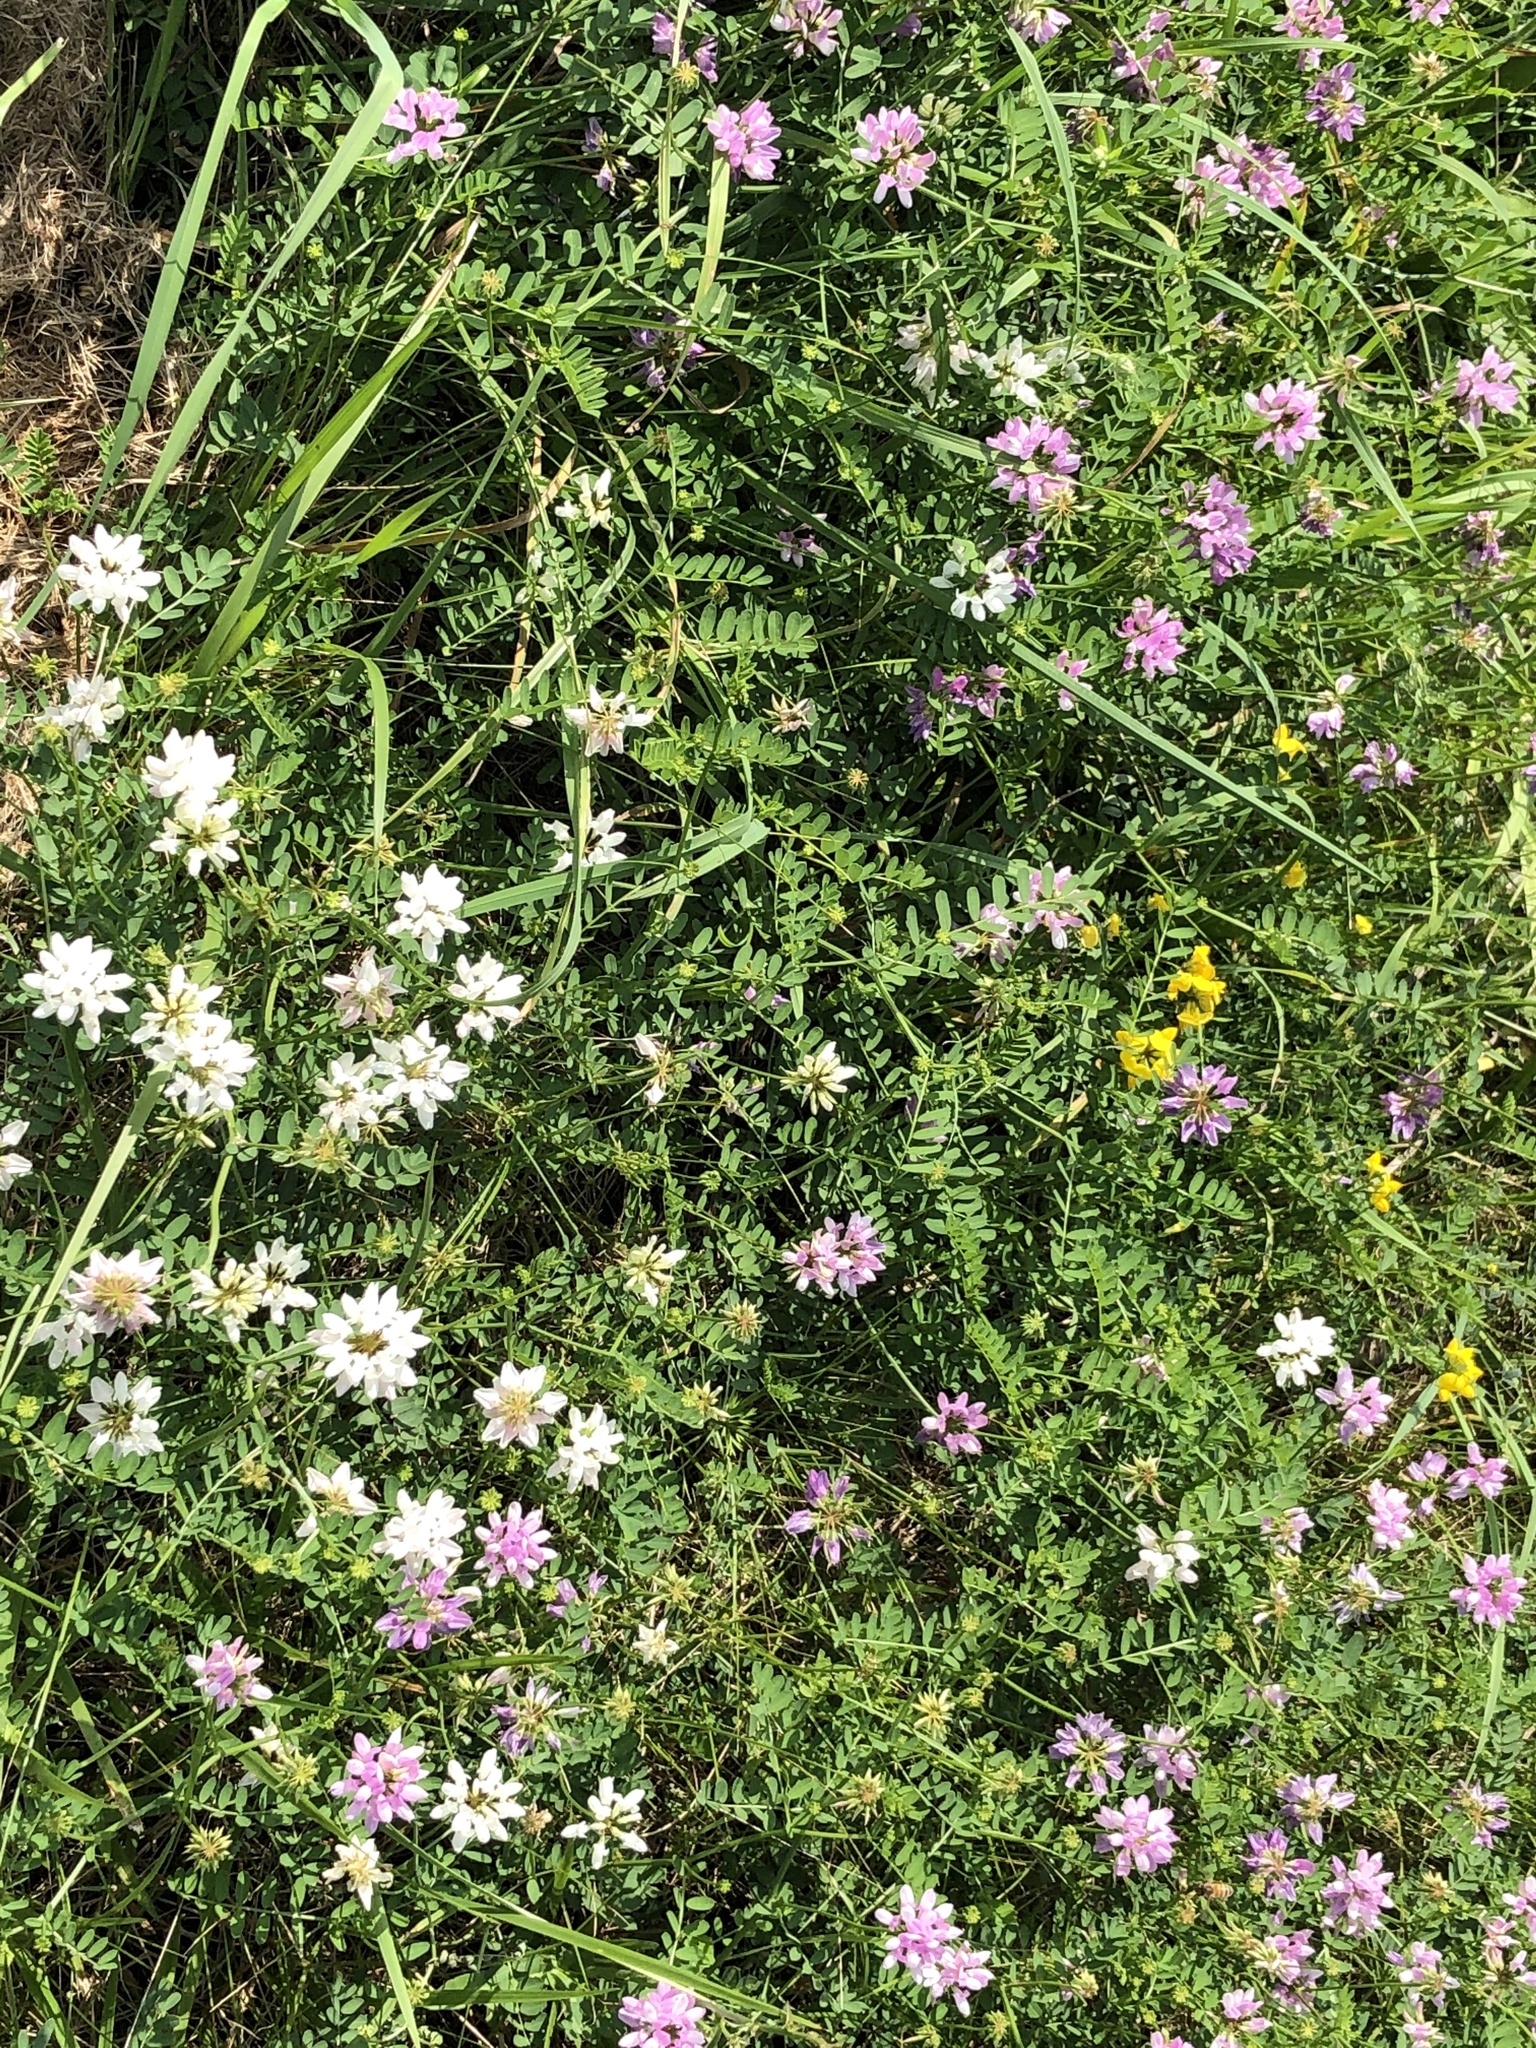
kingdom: Plantae
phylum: Tracheophyta
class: Magnoliopsida
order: Fabales
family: Fabaceae
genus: Coronilla
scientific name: Coronilla varia
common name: Crownvetch
